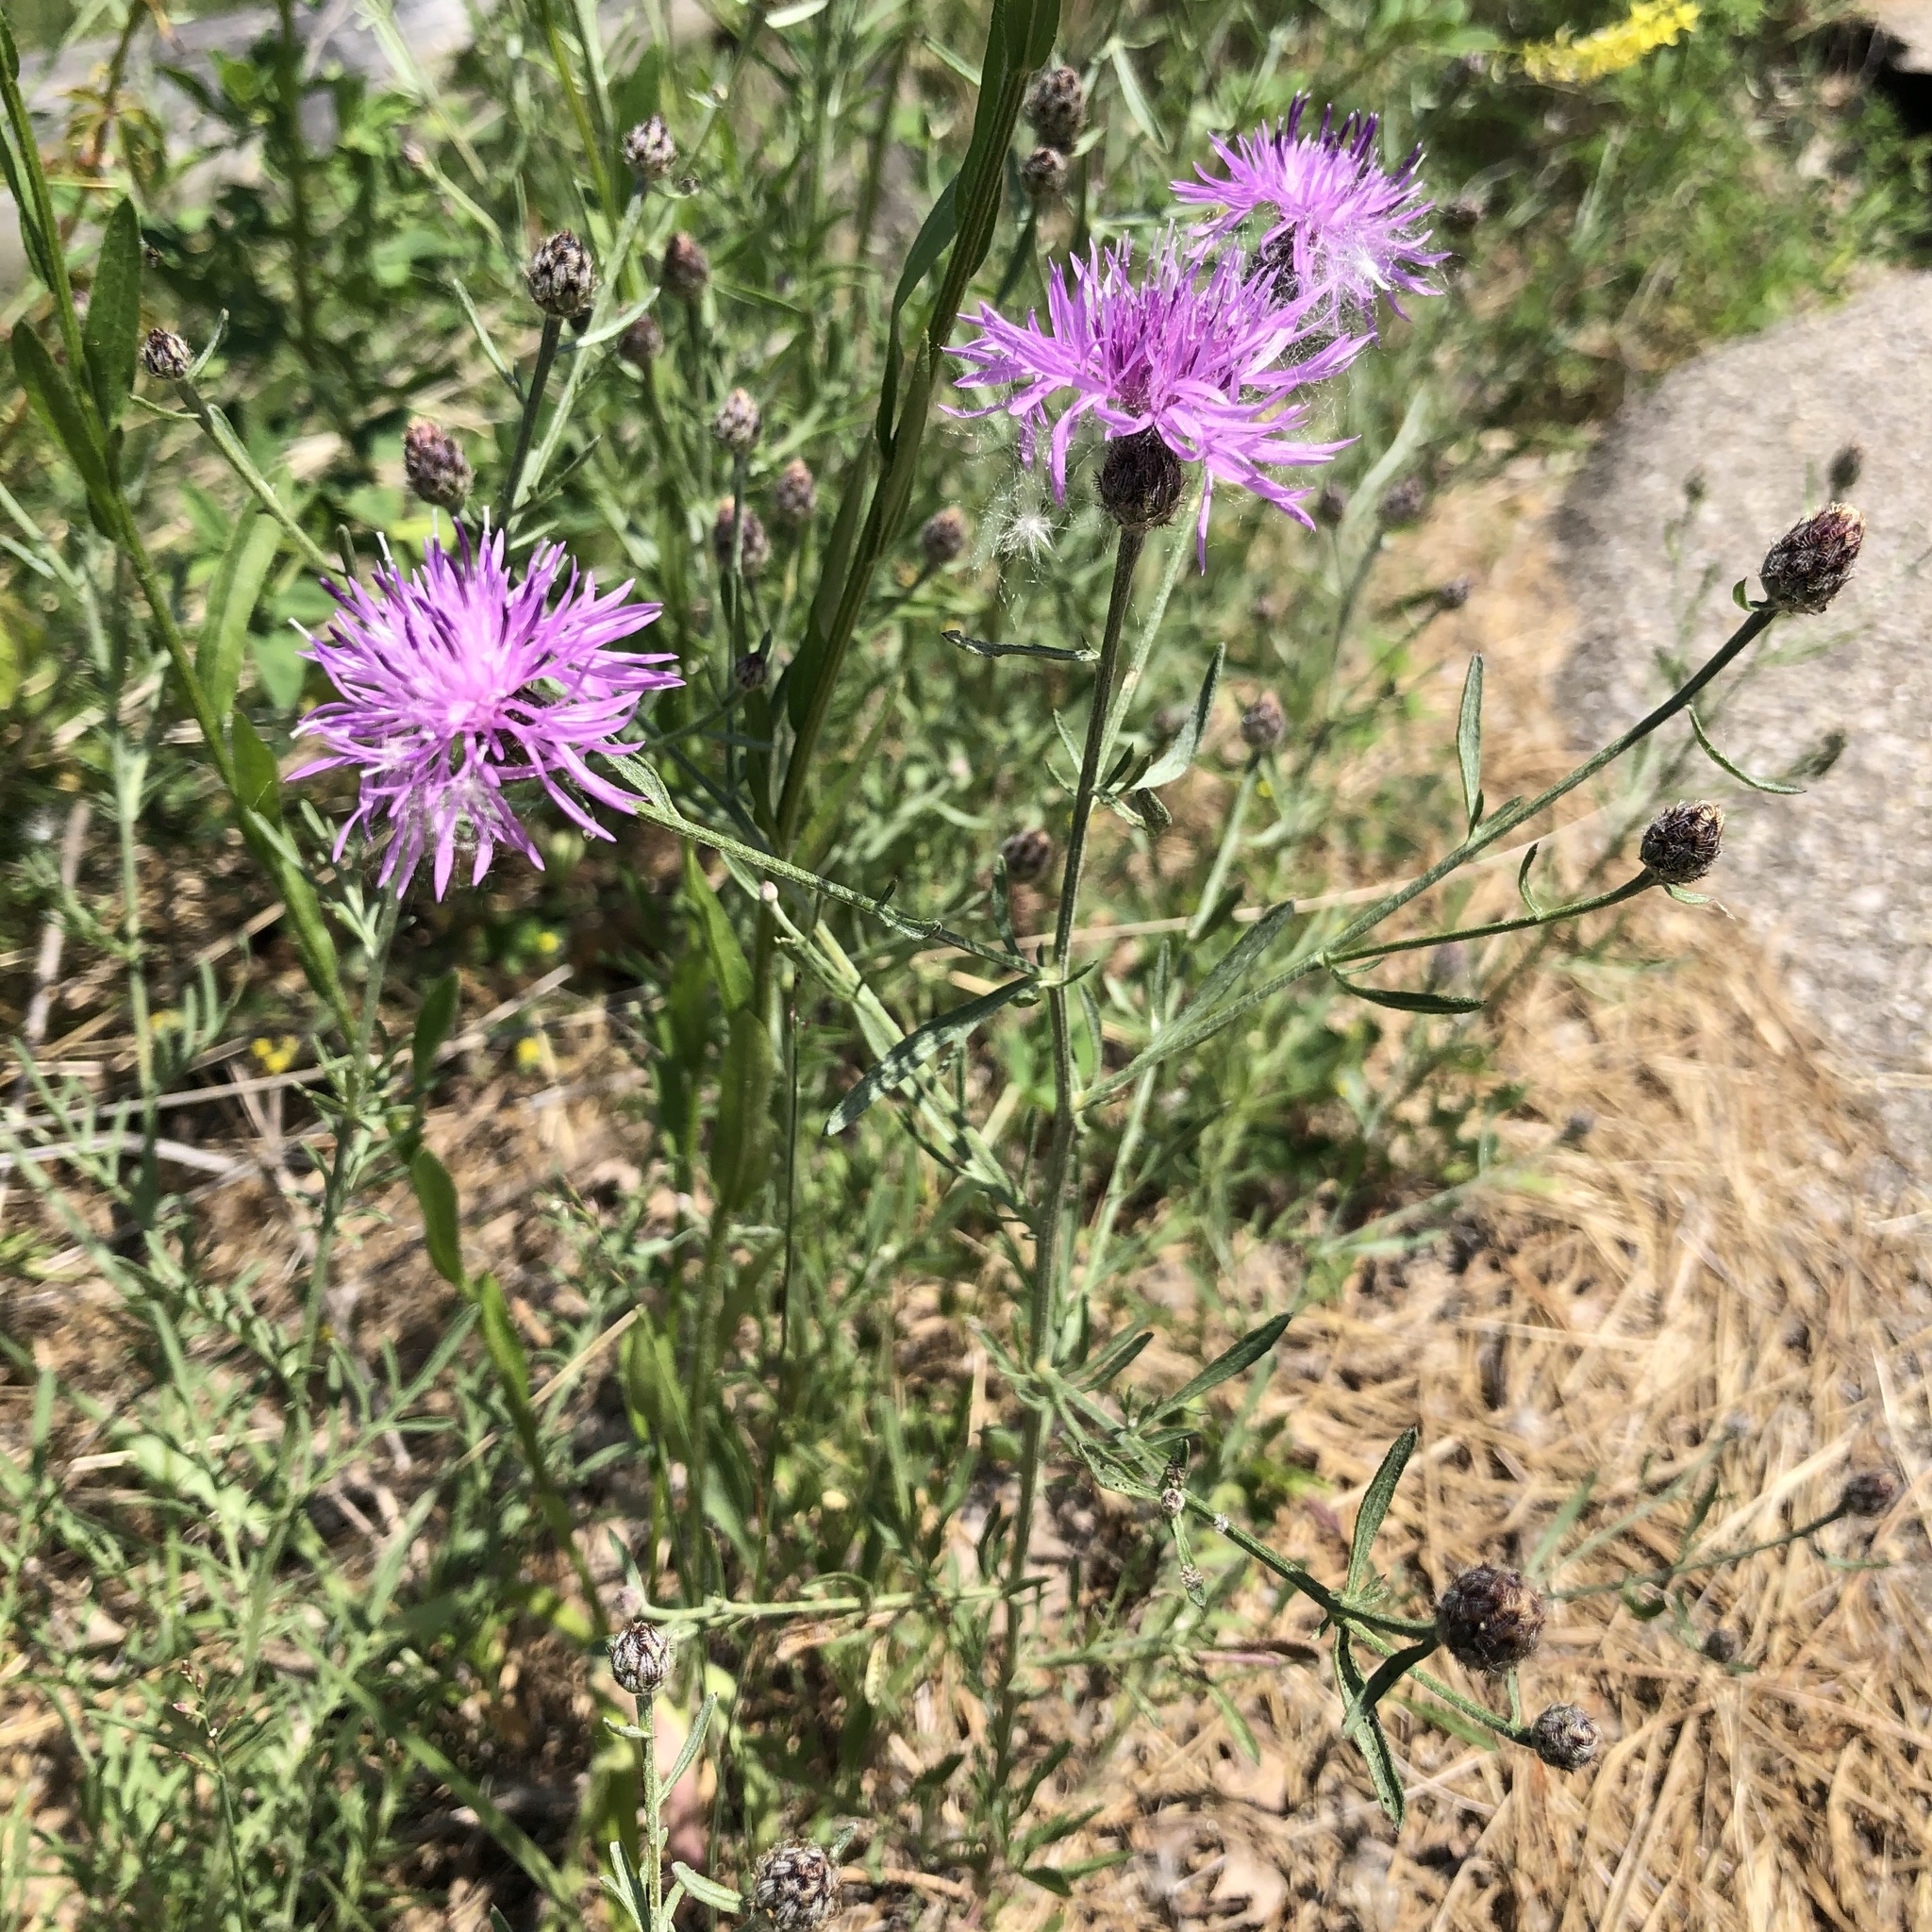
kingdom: Plantae
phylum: Tracheophyta
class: Magnoliopsida
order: Asterales
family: Asteraceae
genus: Centaurea
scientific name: Centaurea stoebe
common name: Spotted knapweed
